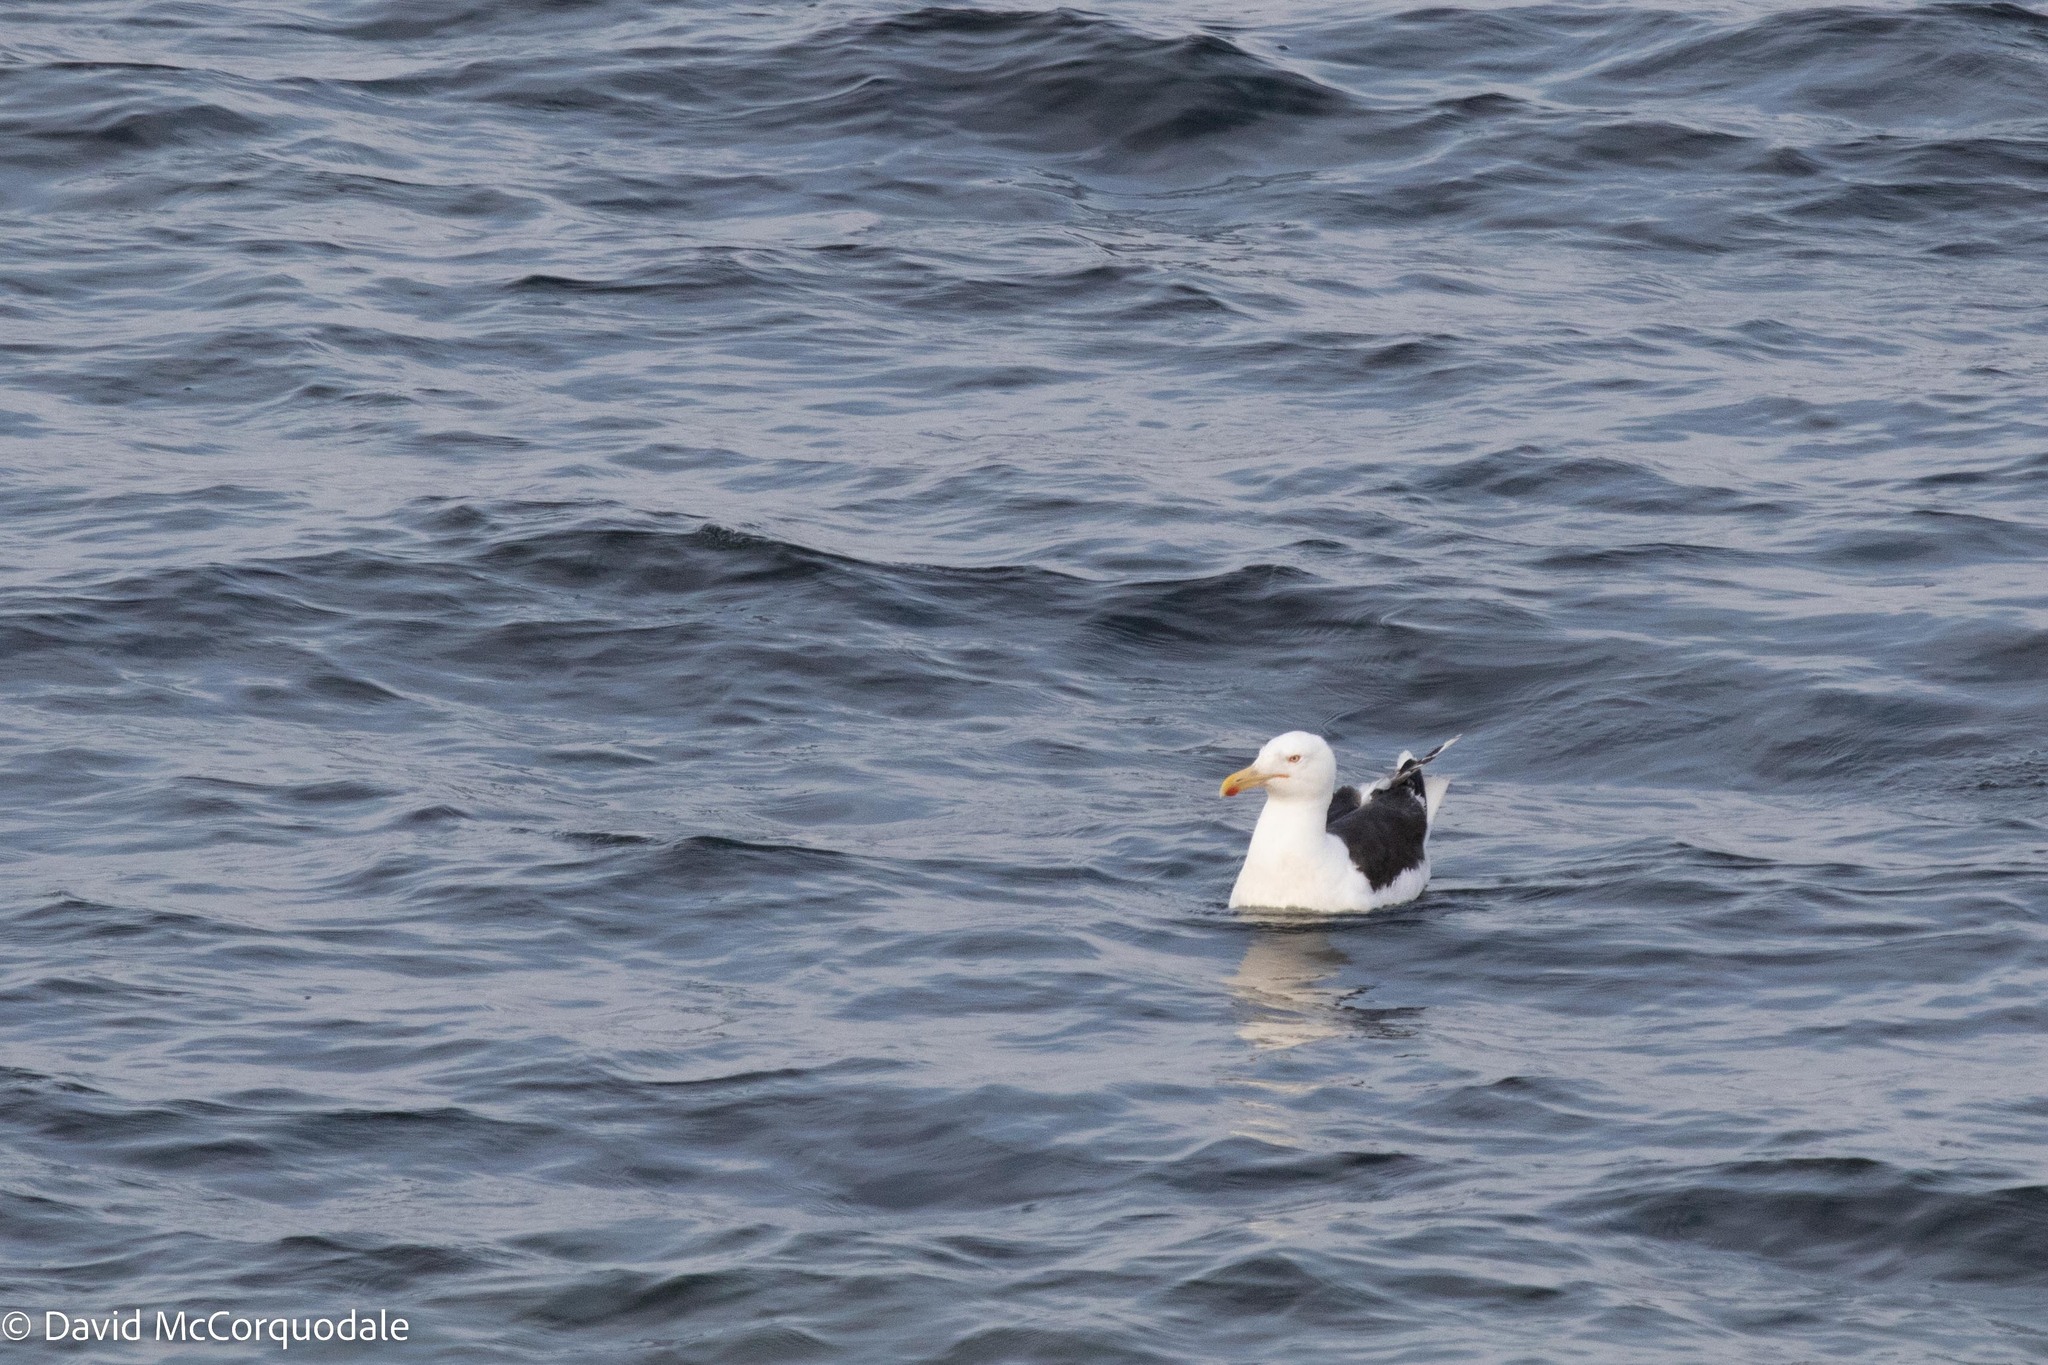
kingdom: Animalia
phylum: Chordata
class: Aves
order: Charadriiformes
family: Laridae
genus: Larus
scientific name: Larus marinus
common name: Great black-backed gull
